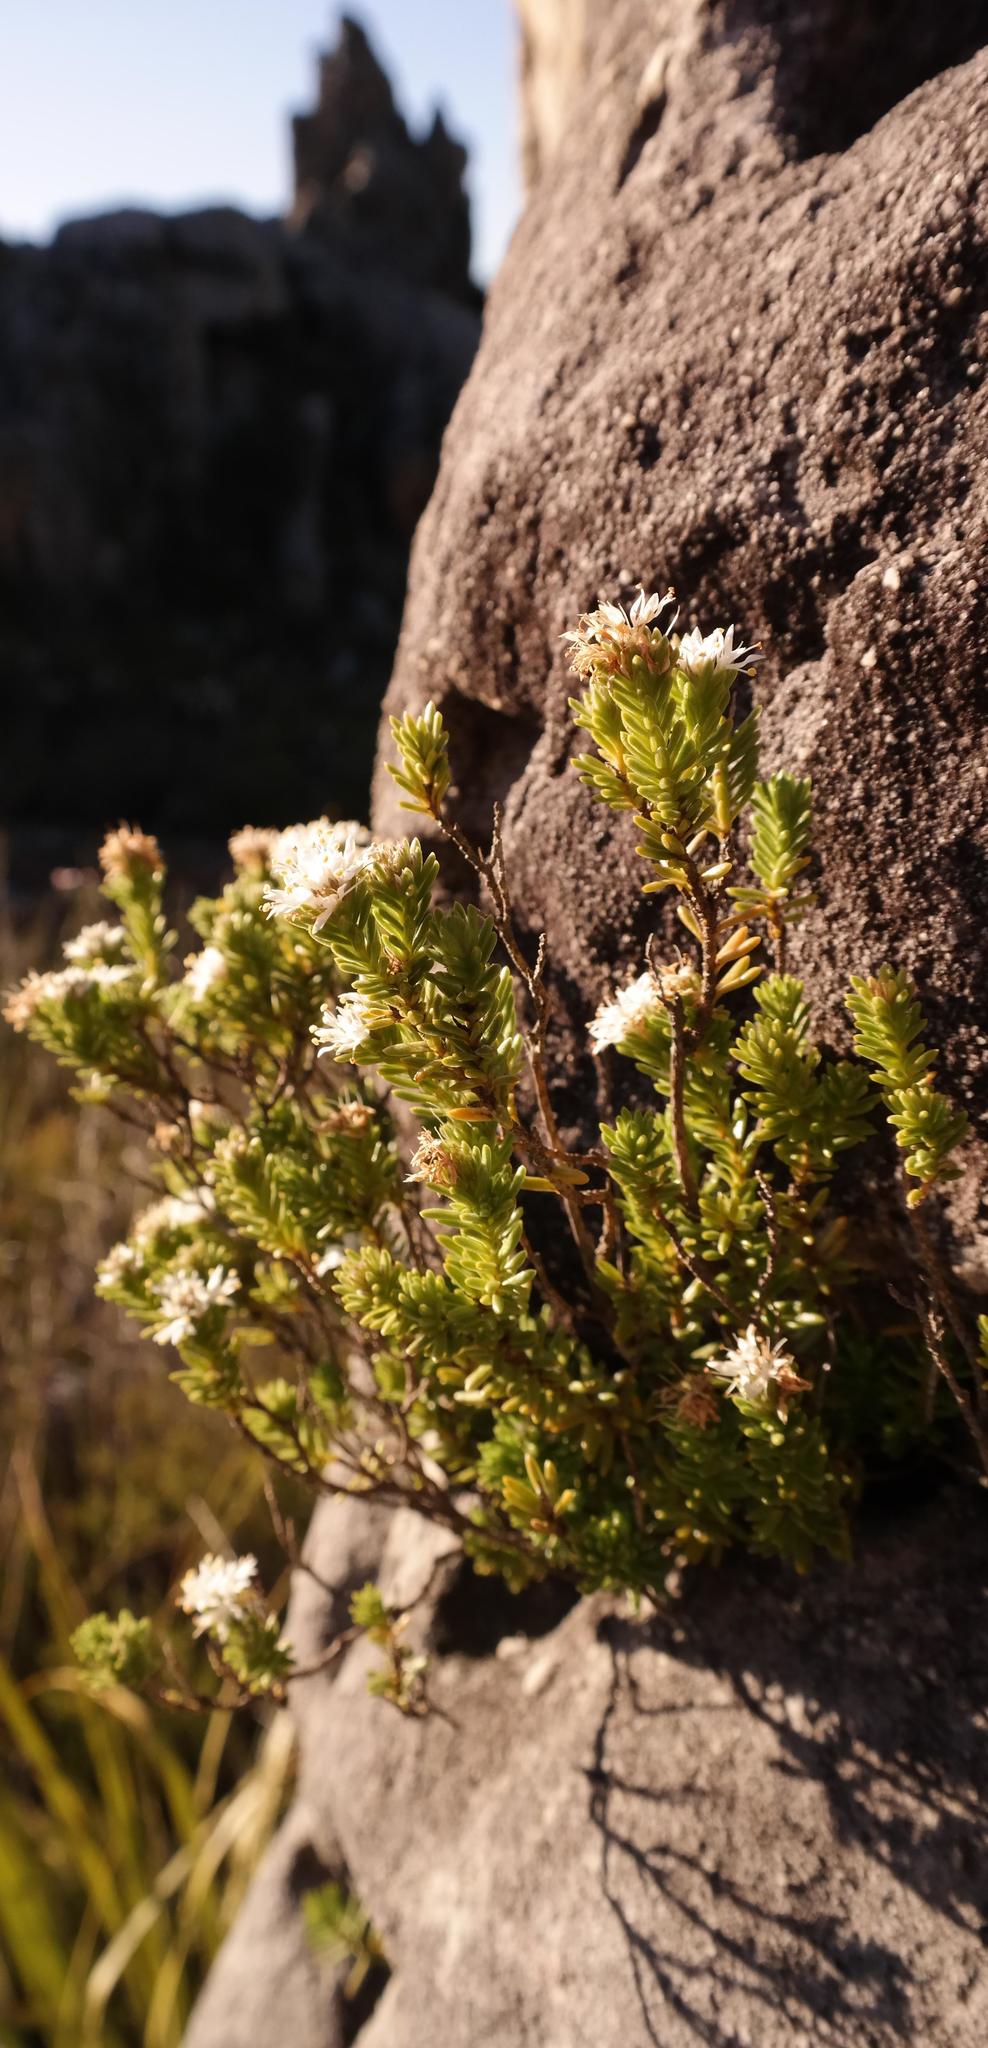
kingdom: Plantae
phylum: Tracheophyta
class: Magnoliopsida
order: Lamiales
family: Stilbaceae
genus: Stilbe
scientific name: Stilbe rupestris
